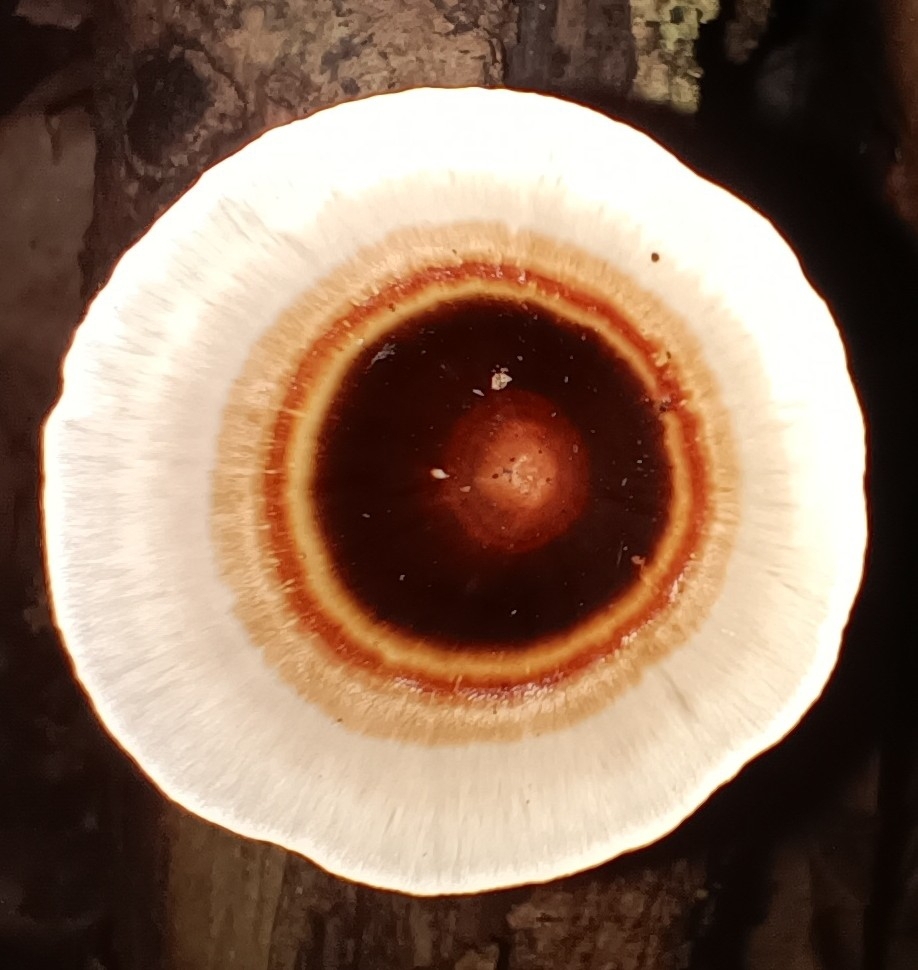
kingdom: Fungi
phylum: Basidiomycota
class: Agaricomycetes
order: Polyporales
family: Polyporaceae
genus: Microporus
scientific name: Microporus xanthopus
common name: Yellow-stemmed micropore
